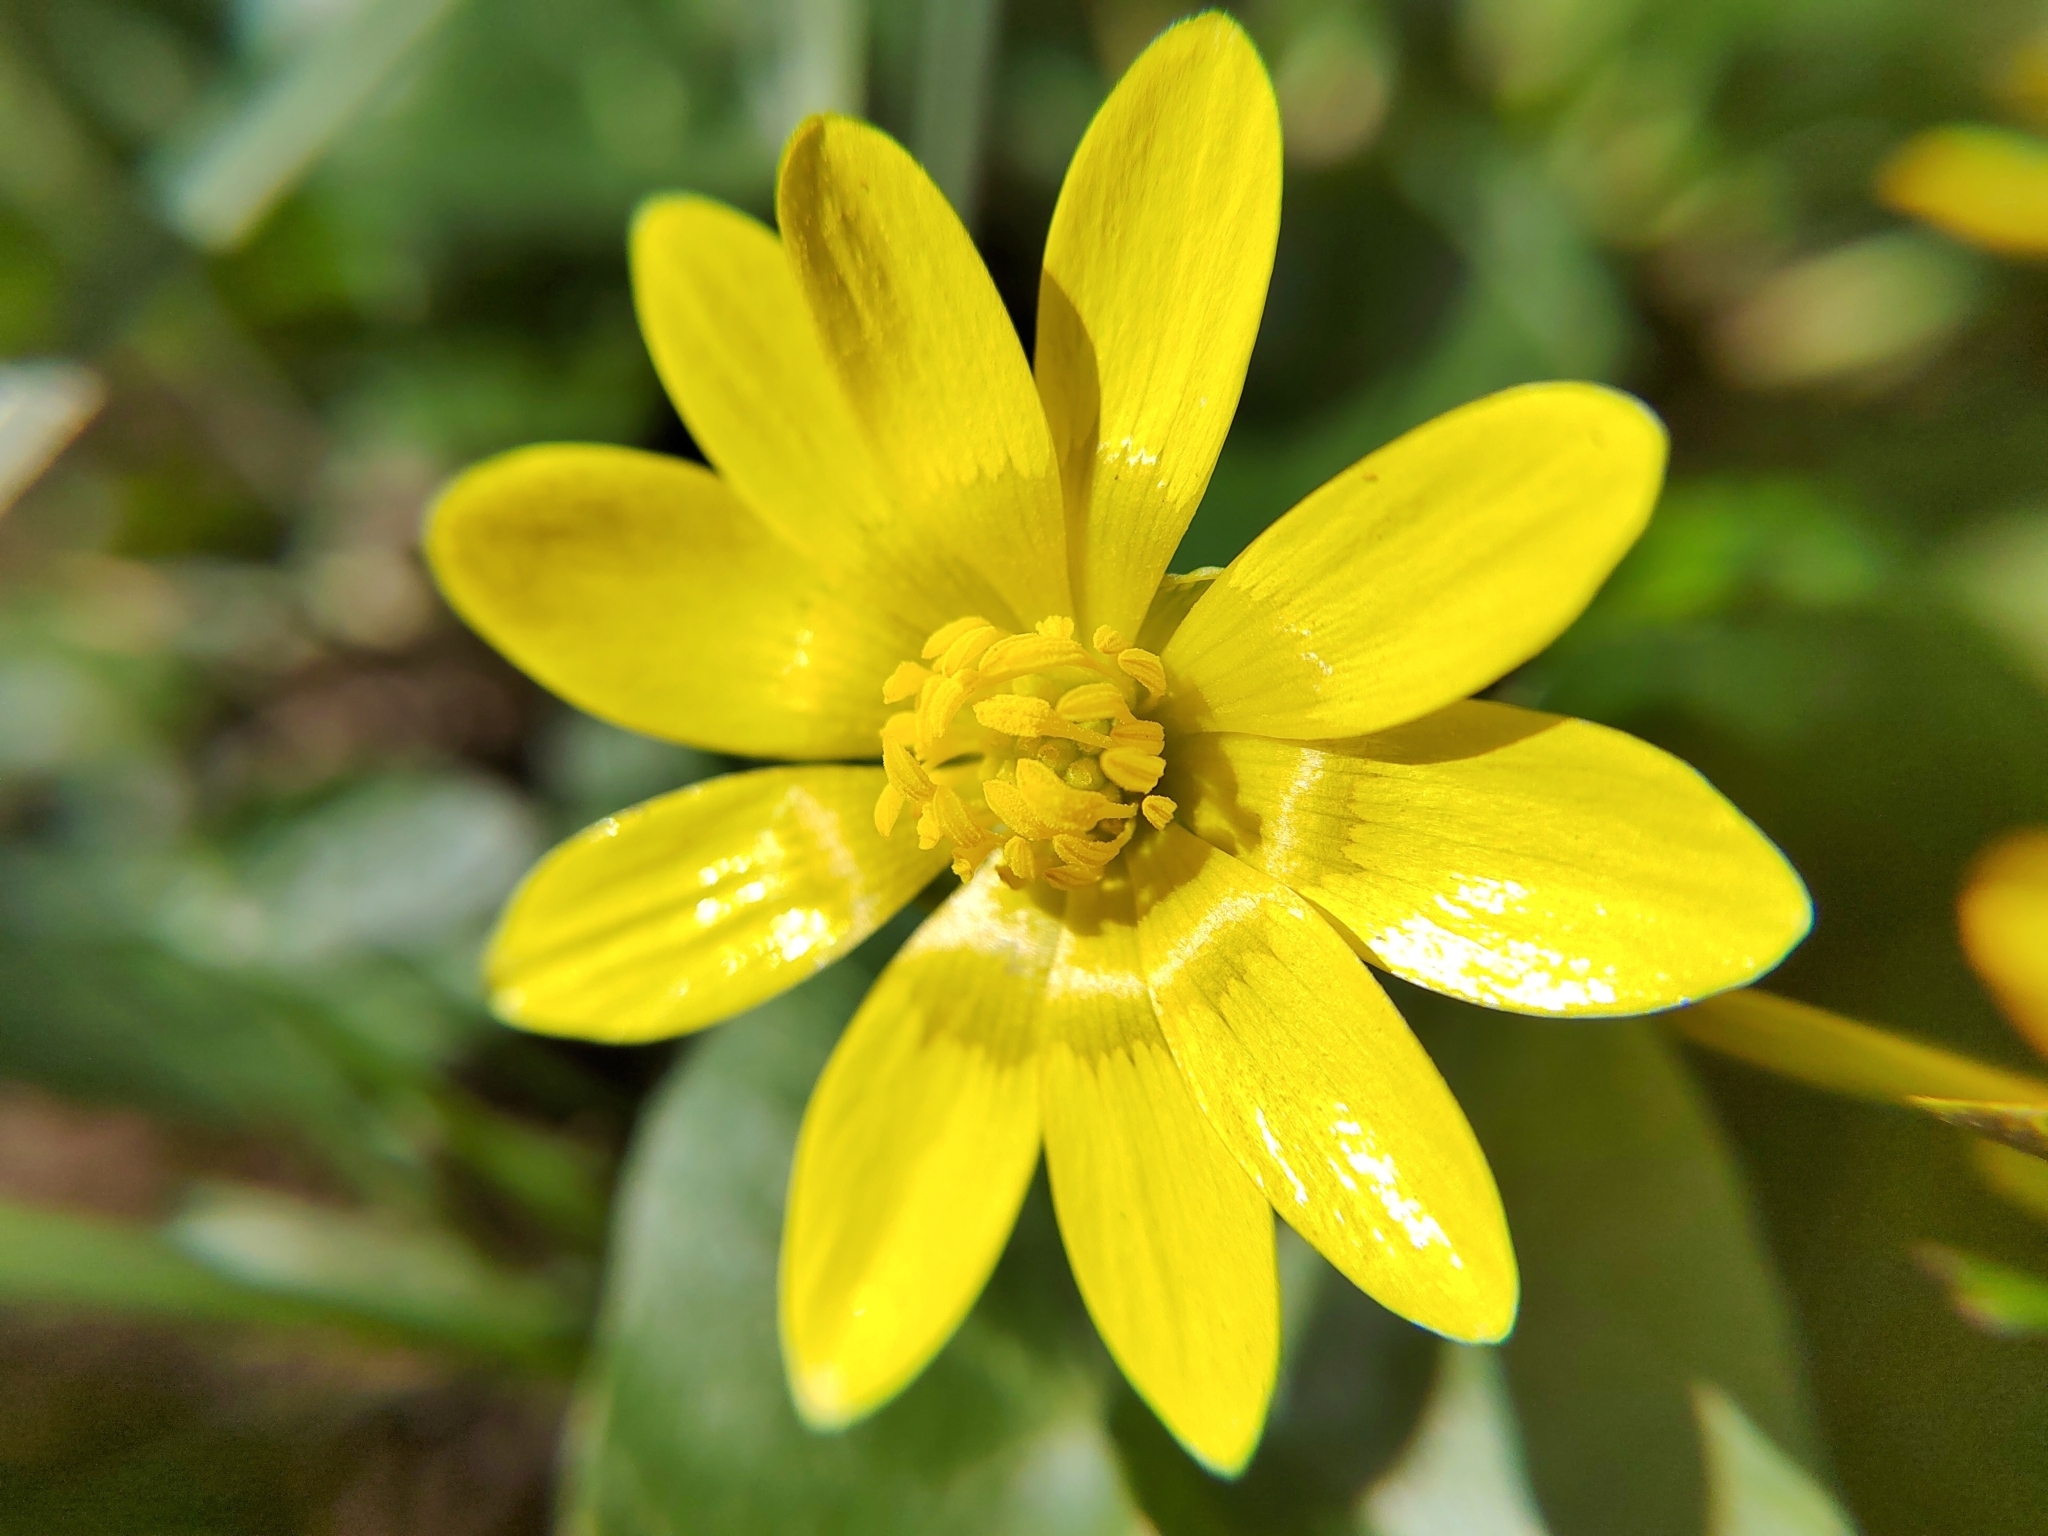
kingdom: Plantae
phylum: Tracheophyta
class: Magnoliopsida
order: Ranunculales
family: Ranunculaceae
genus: Ficaria
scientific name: Ficaria verna
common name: Lesser celandine
